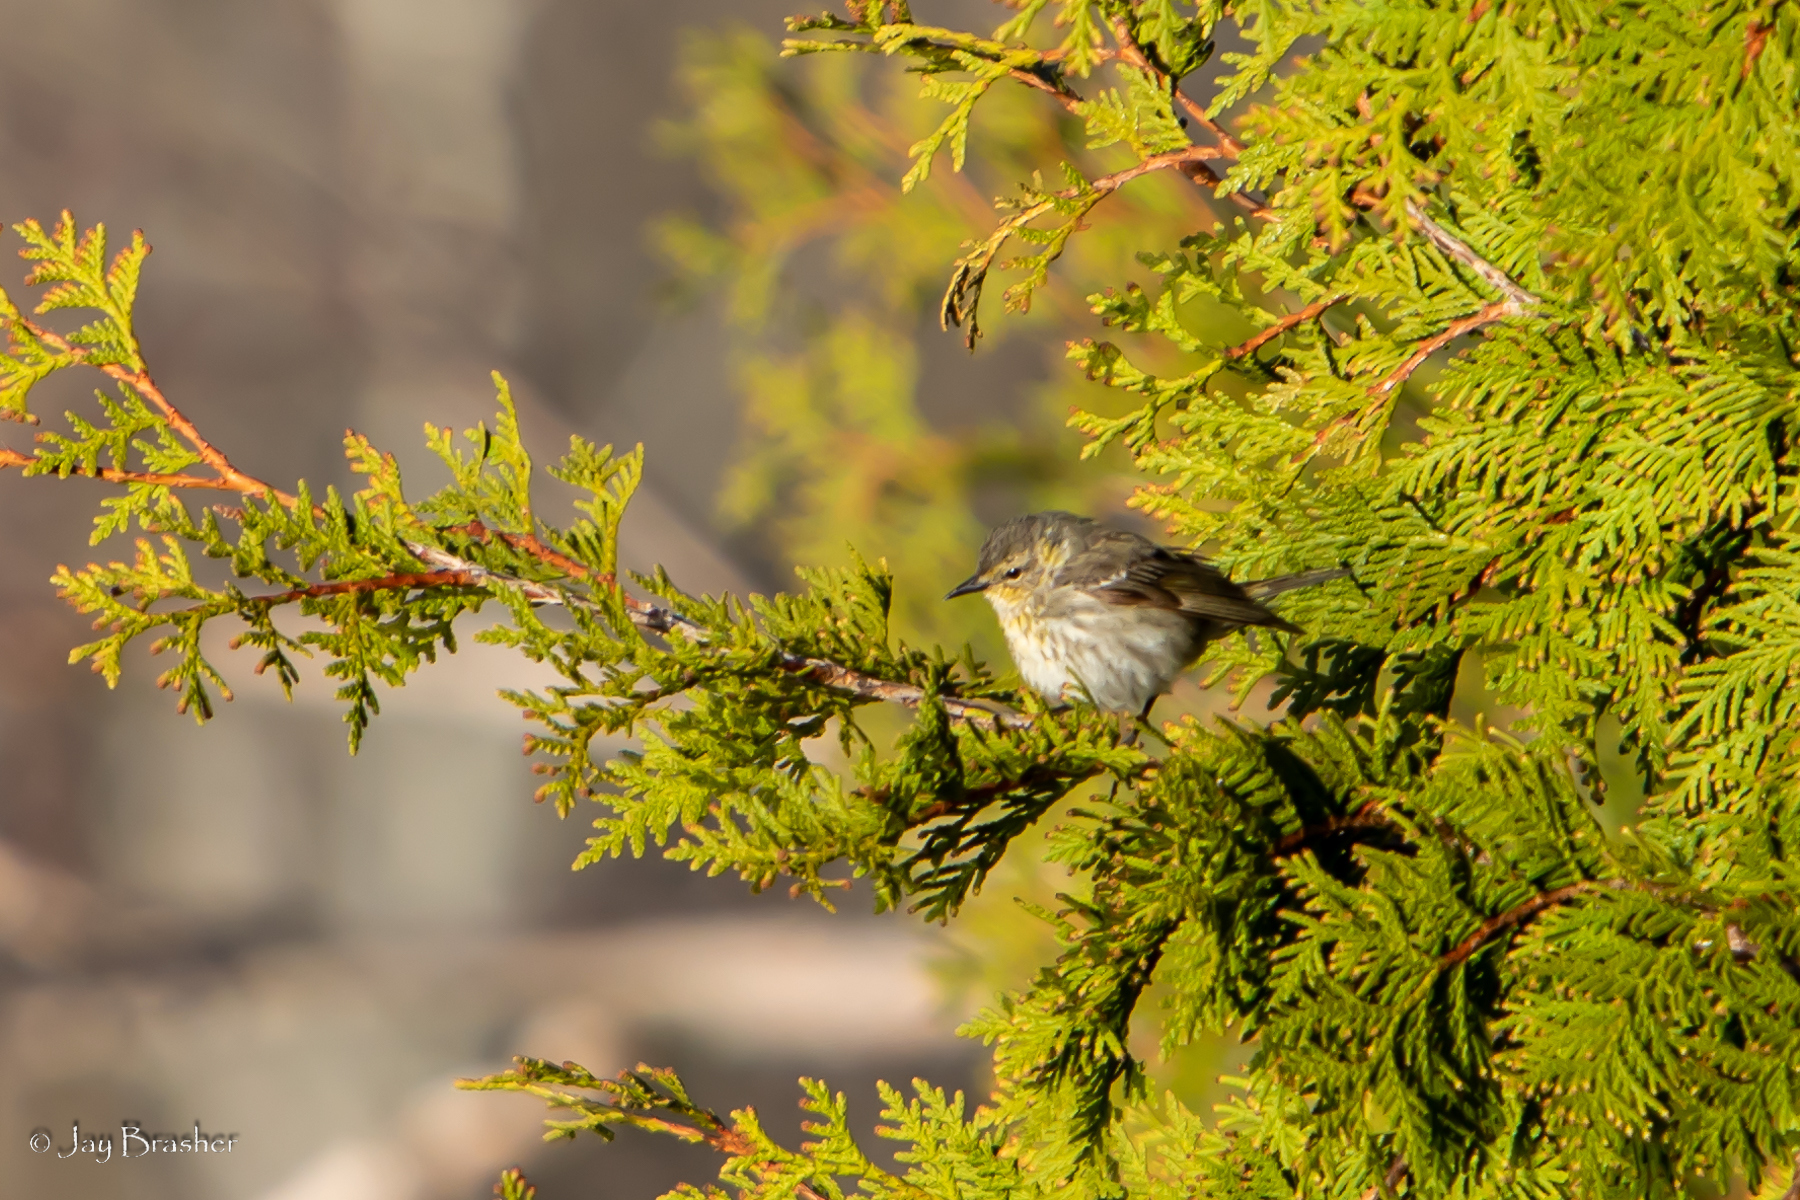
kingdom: Animalia
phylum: Chordata
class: Aves
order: Passeriformes
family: Parulidae
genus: Setophaga
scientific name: Setophaga palmarum
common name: Palm warbler
